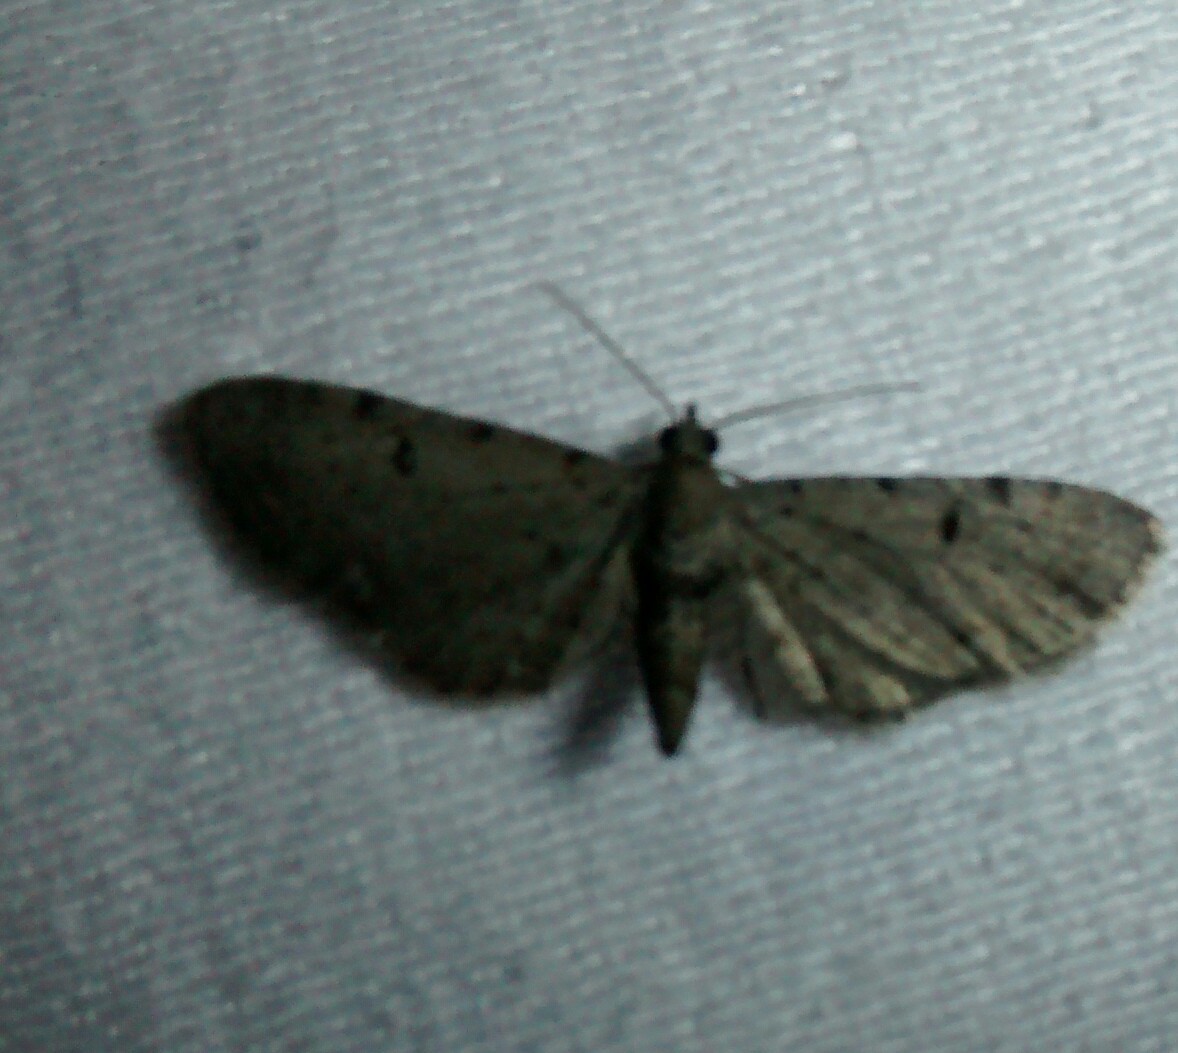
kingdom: Animalia
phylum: Arthropoda
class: Insecta
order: Lepidoptera
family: Geometridae
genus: Eupithecia
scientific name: Eupithecia absinthiata
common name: Wormwood pug
